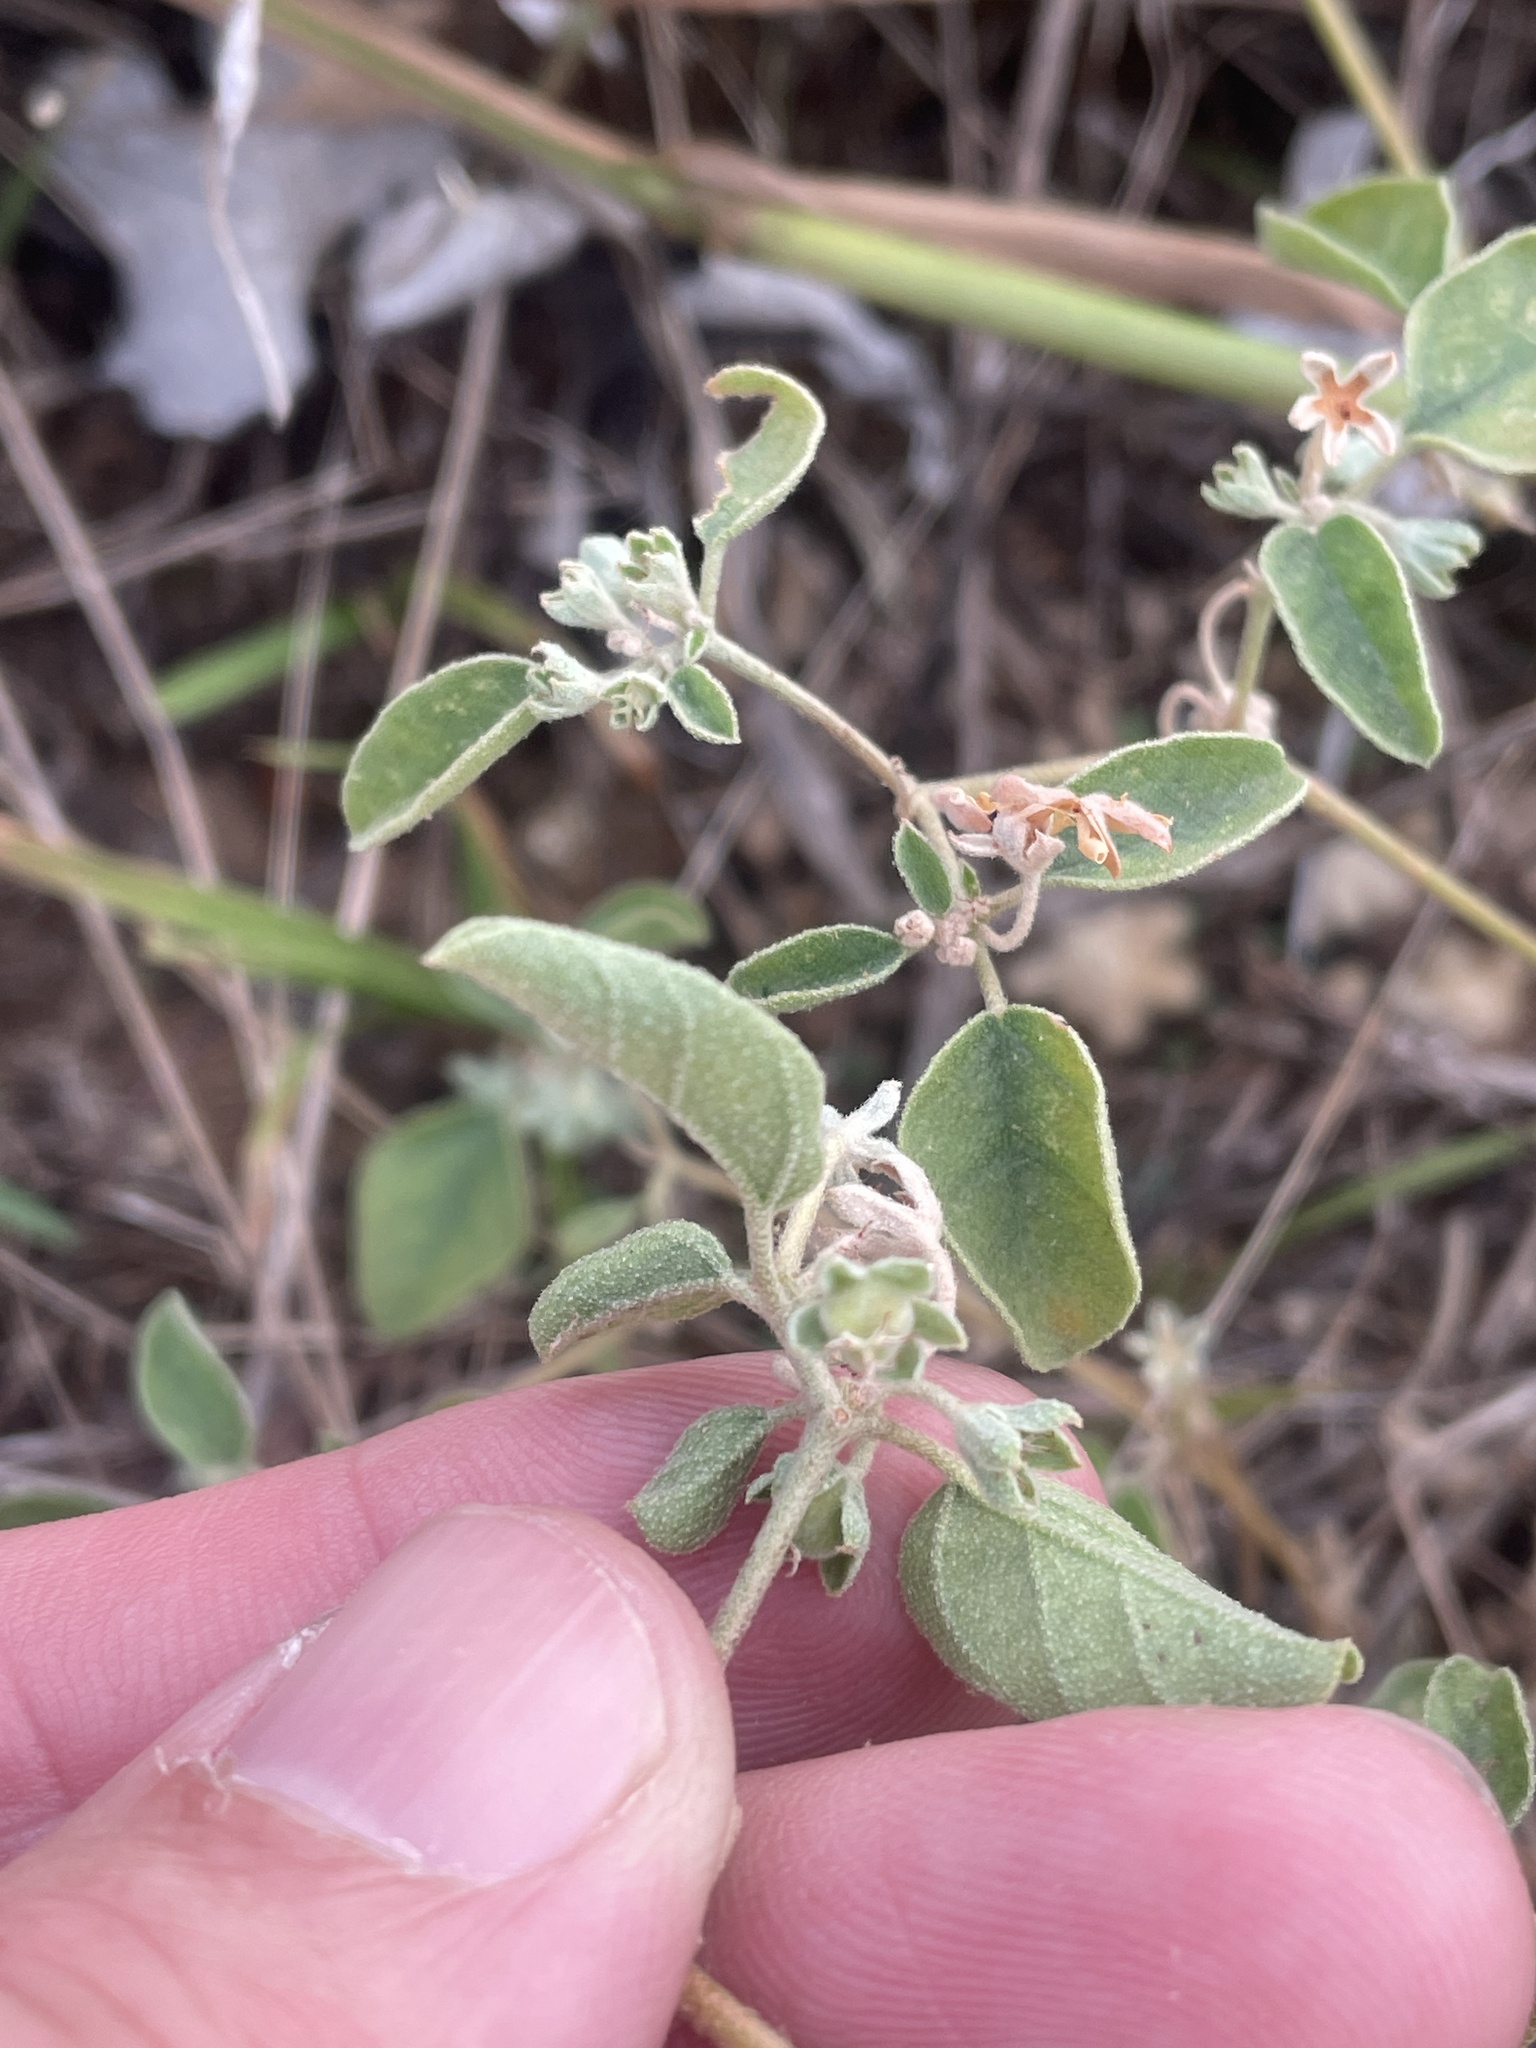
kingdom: Plantae
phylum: Tracheophyta
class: Magnoliopsida
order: Malpighiales
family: Euphorbiaceae
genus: Croton
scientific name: Croton monanthogynus
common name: One-seed croton
